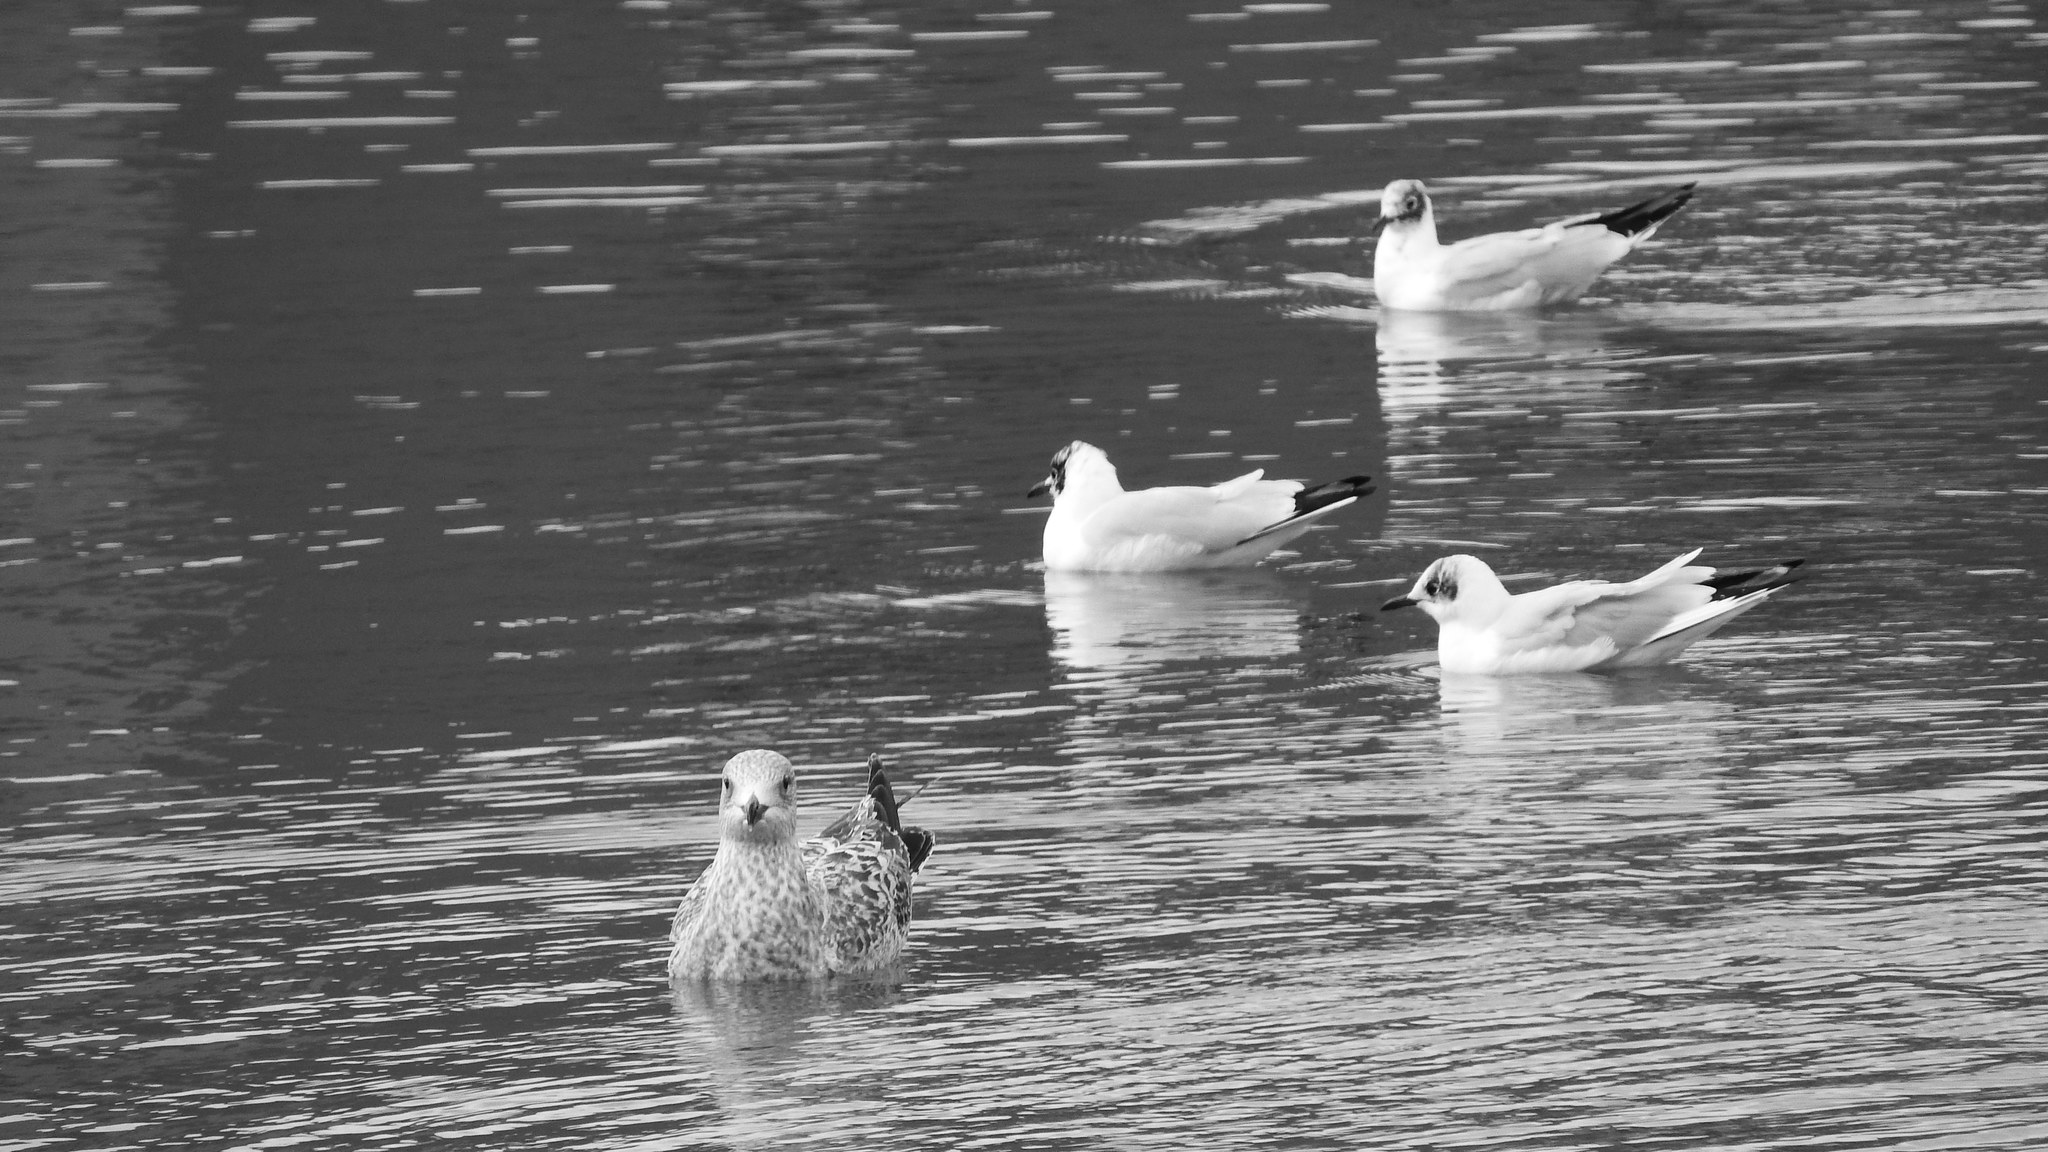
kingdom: Animalia
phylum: Chordata
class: Aves
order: Charadriiformes
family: Laridae
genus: Chroicocephalus
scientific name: Chroicocephalus ridibundus
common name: Black-headed gull
